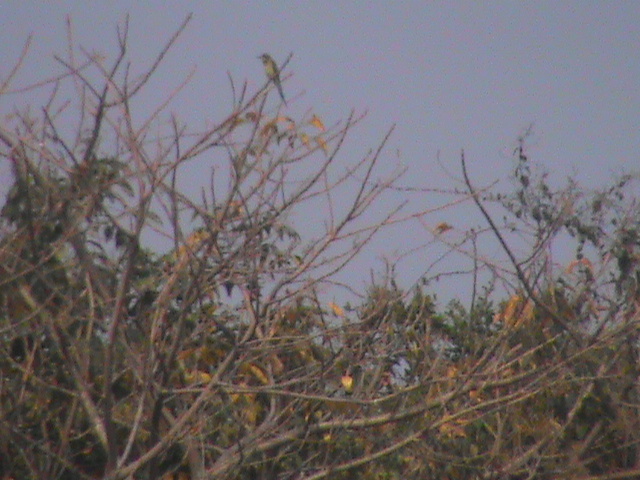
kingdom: Animalia
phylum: Chordata
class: Aves
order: Coraciiformes
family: Meropidae
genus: Merops
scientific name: Merops philippinus
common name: Blue-tailed bee-eater
